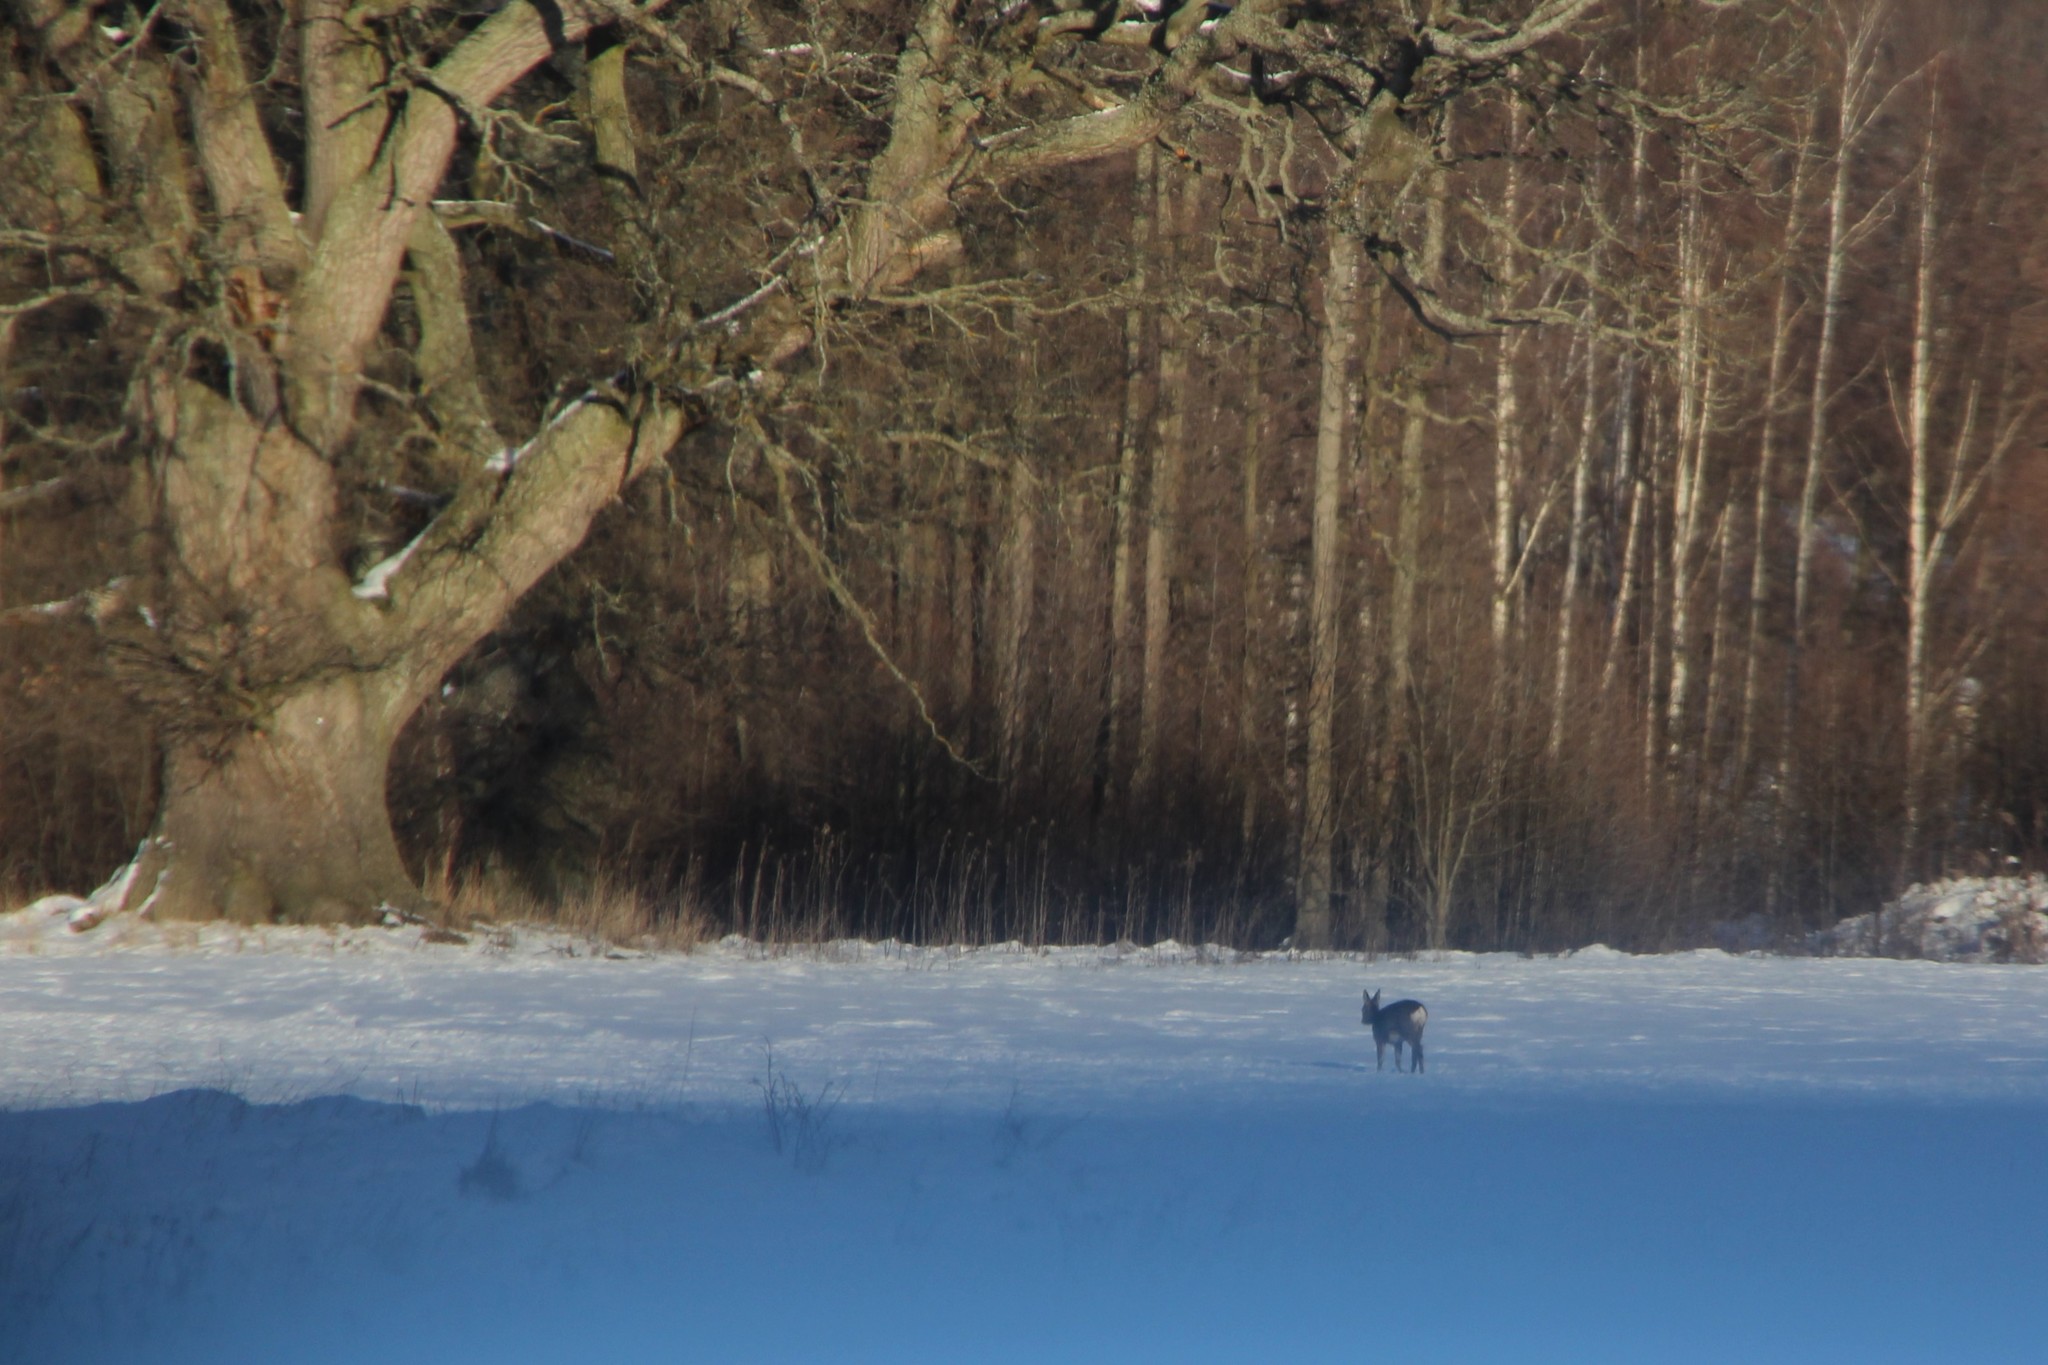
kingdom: Animalia
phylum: Chordata
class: Mammalia
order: Artiodactyla
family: Cervidae
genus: Capreolus
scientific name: Capreolus capreolus
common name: Western roe deer
